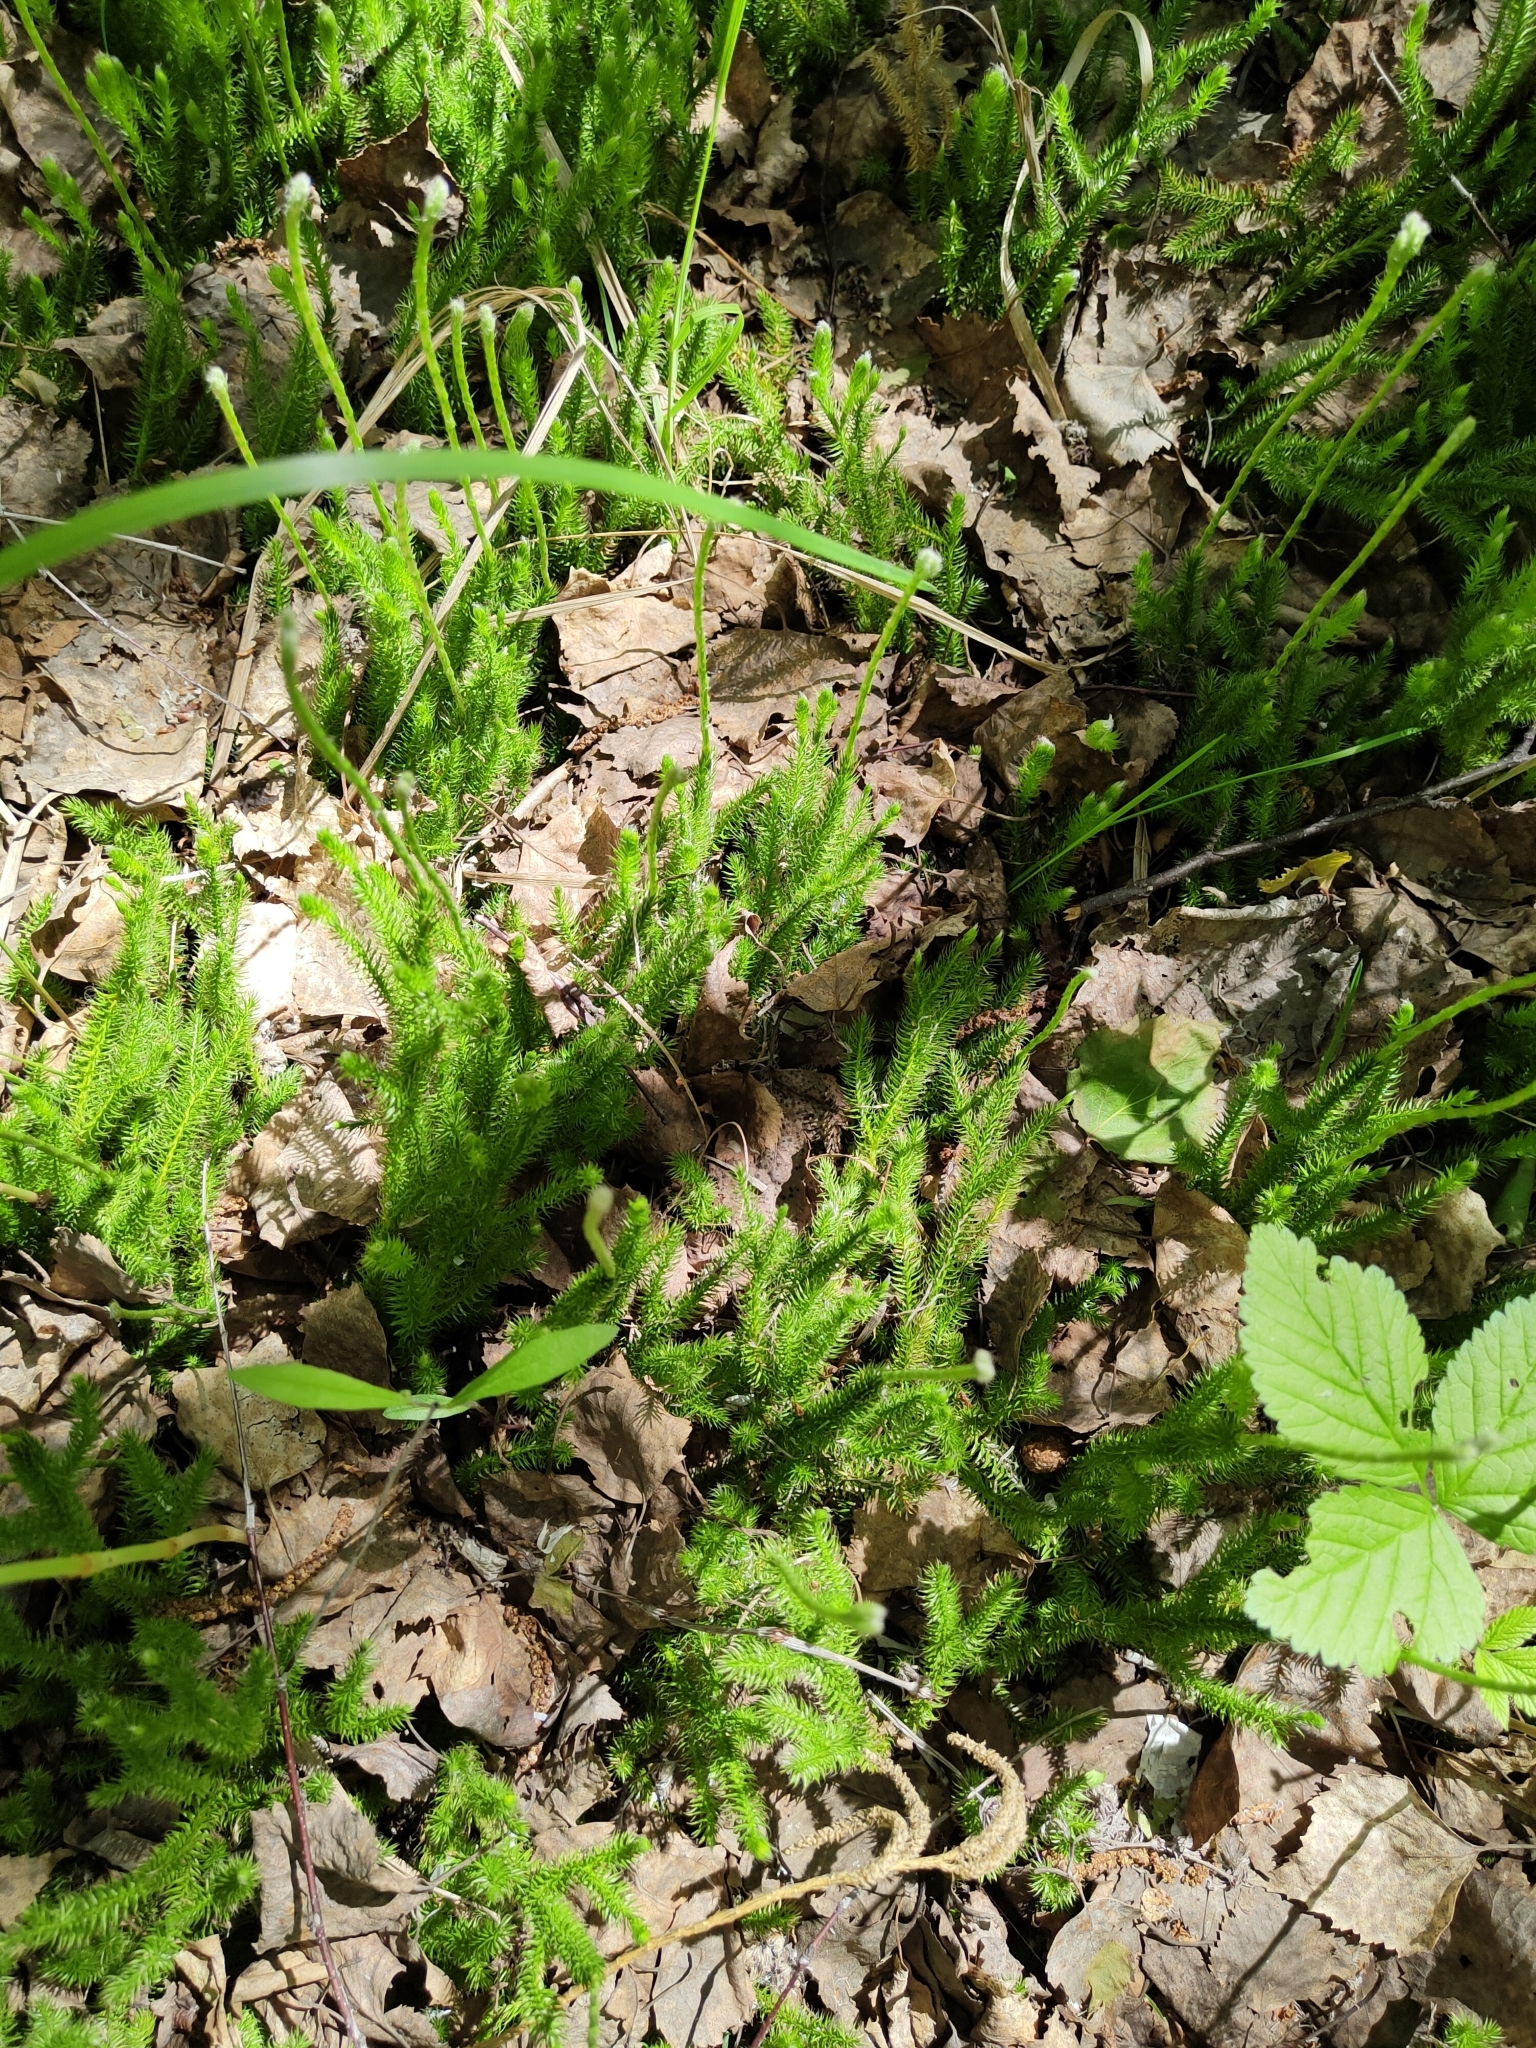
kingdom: Plantae
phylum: Tracheophyta
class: Lycopodiopsida
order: Lycopodiales
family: Lycopodiaceae
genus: Lycopodium
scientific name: Lycopodium clavatum
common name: Stag's-horn clubmoss
